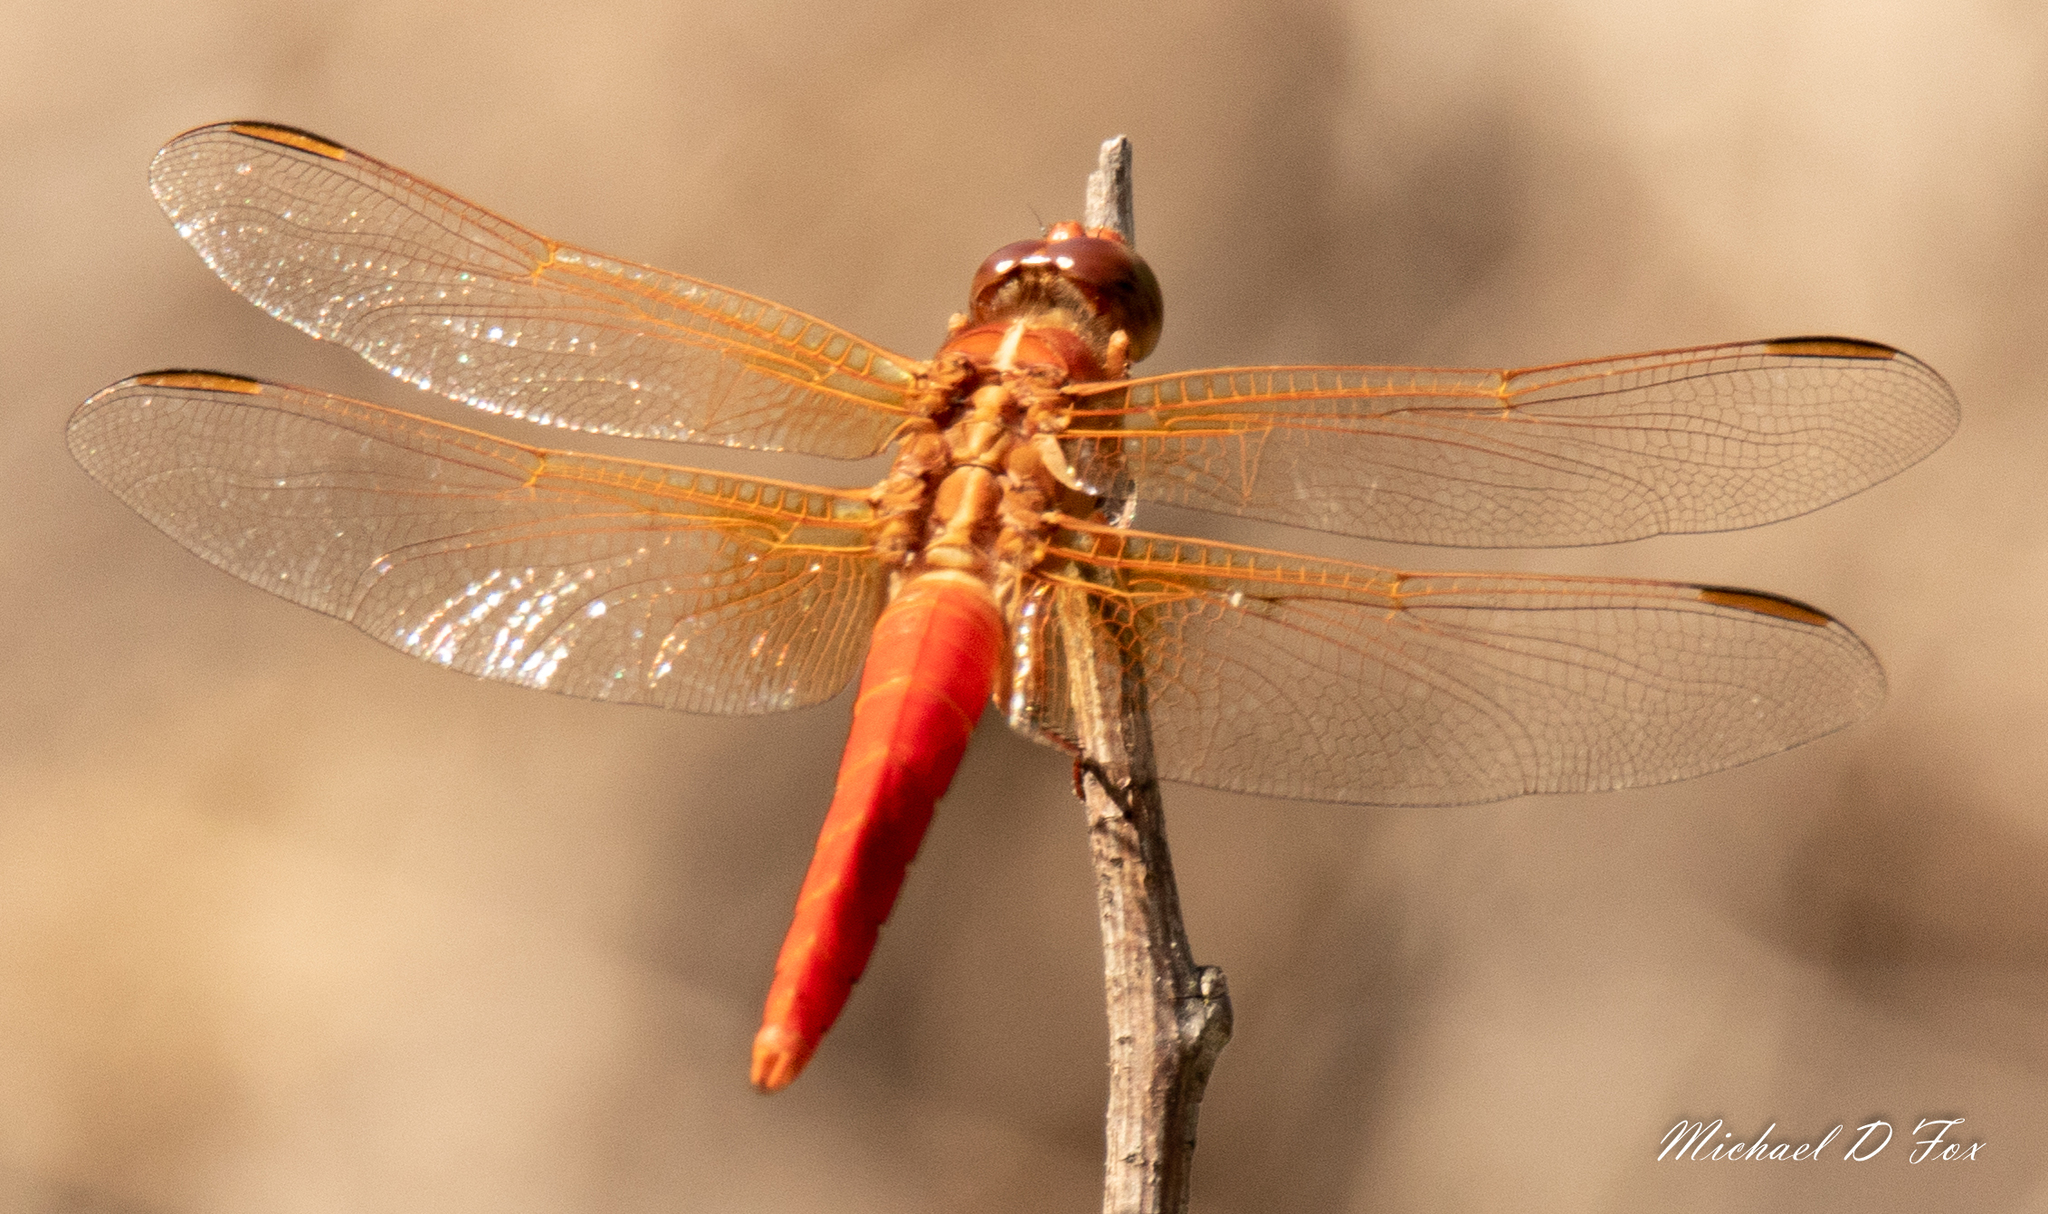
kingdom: Animalia
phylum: Arthropoda
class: Insecta
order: Odonata
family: Libellulidae
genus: Libellula
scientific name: Libellula croceipennis
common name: Neon skimmer
